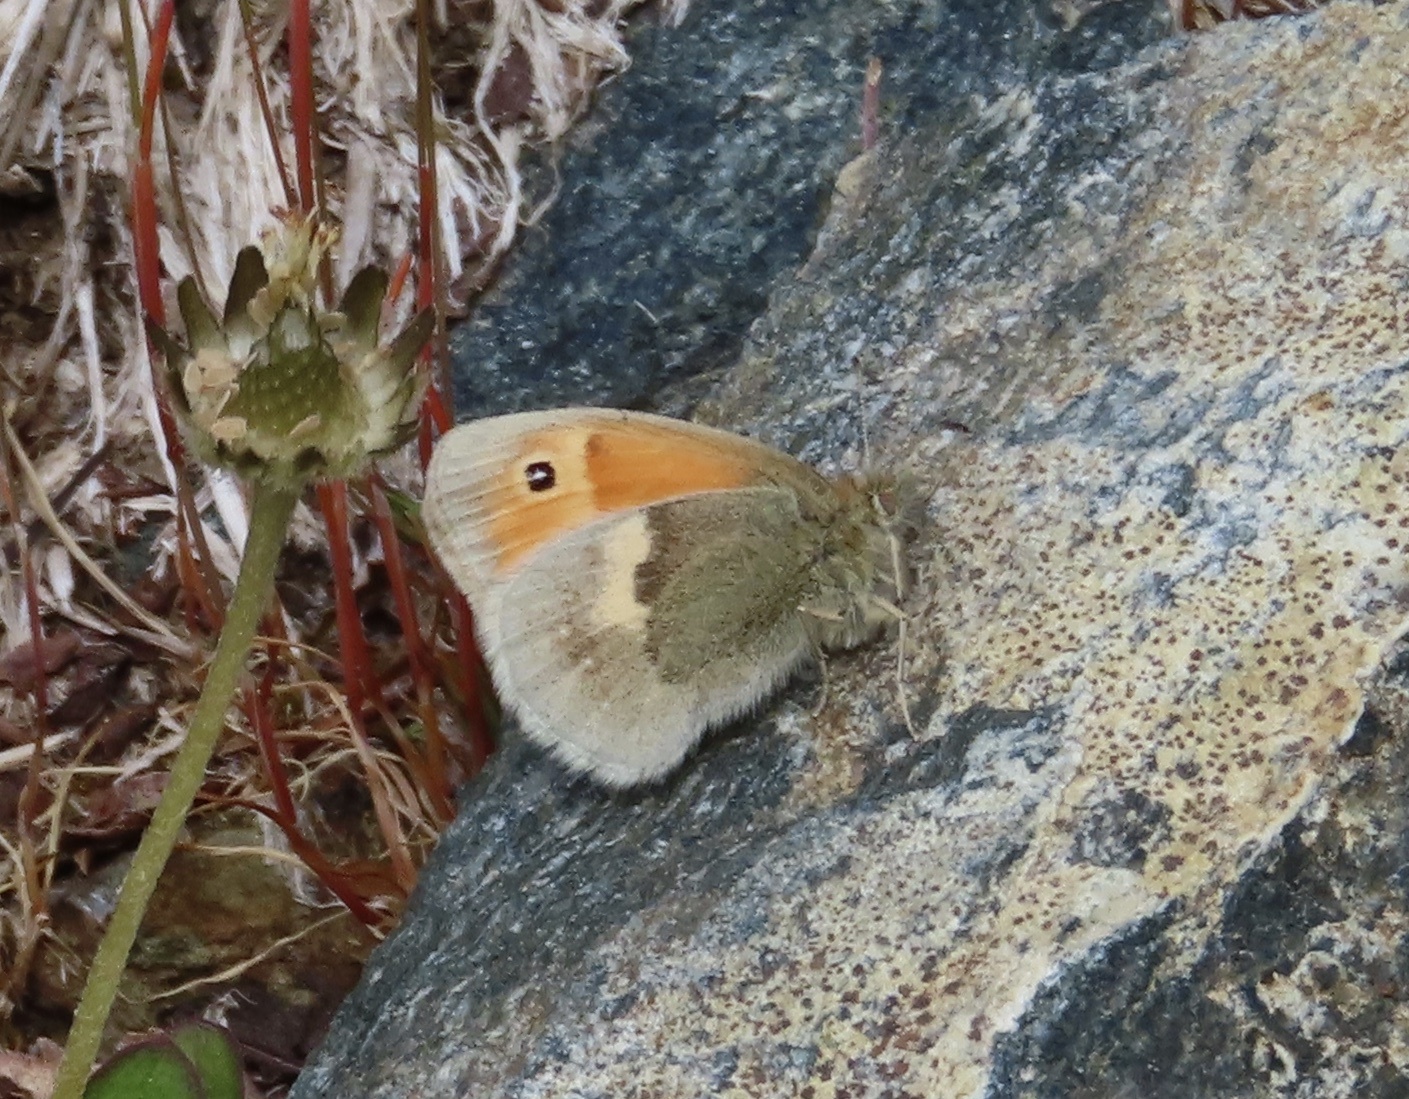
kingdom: Animalia
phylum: Arthropoda
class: Insecta
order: Lepidoptera
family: Nymphalidae
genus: Coenonympha
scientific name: Coenonympha pamphilus
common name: Small heath
